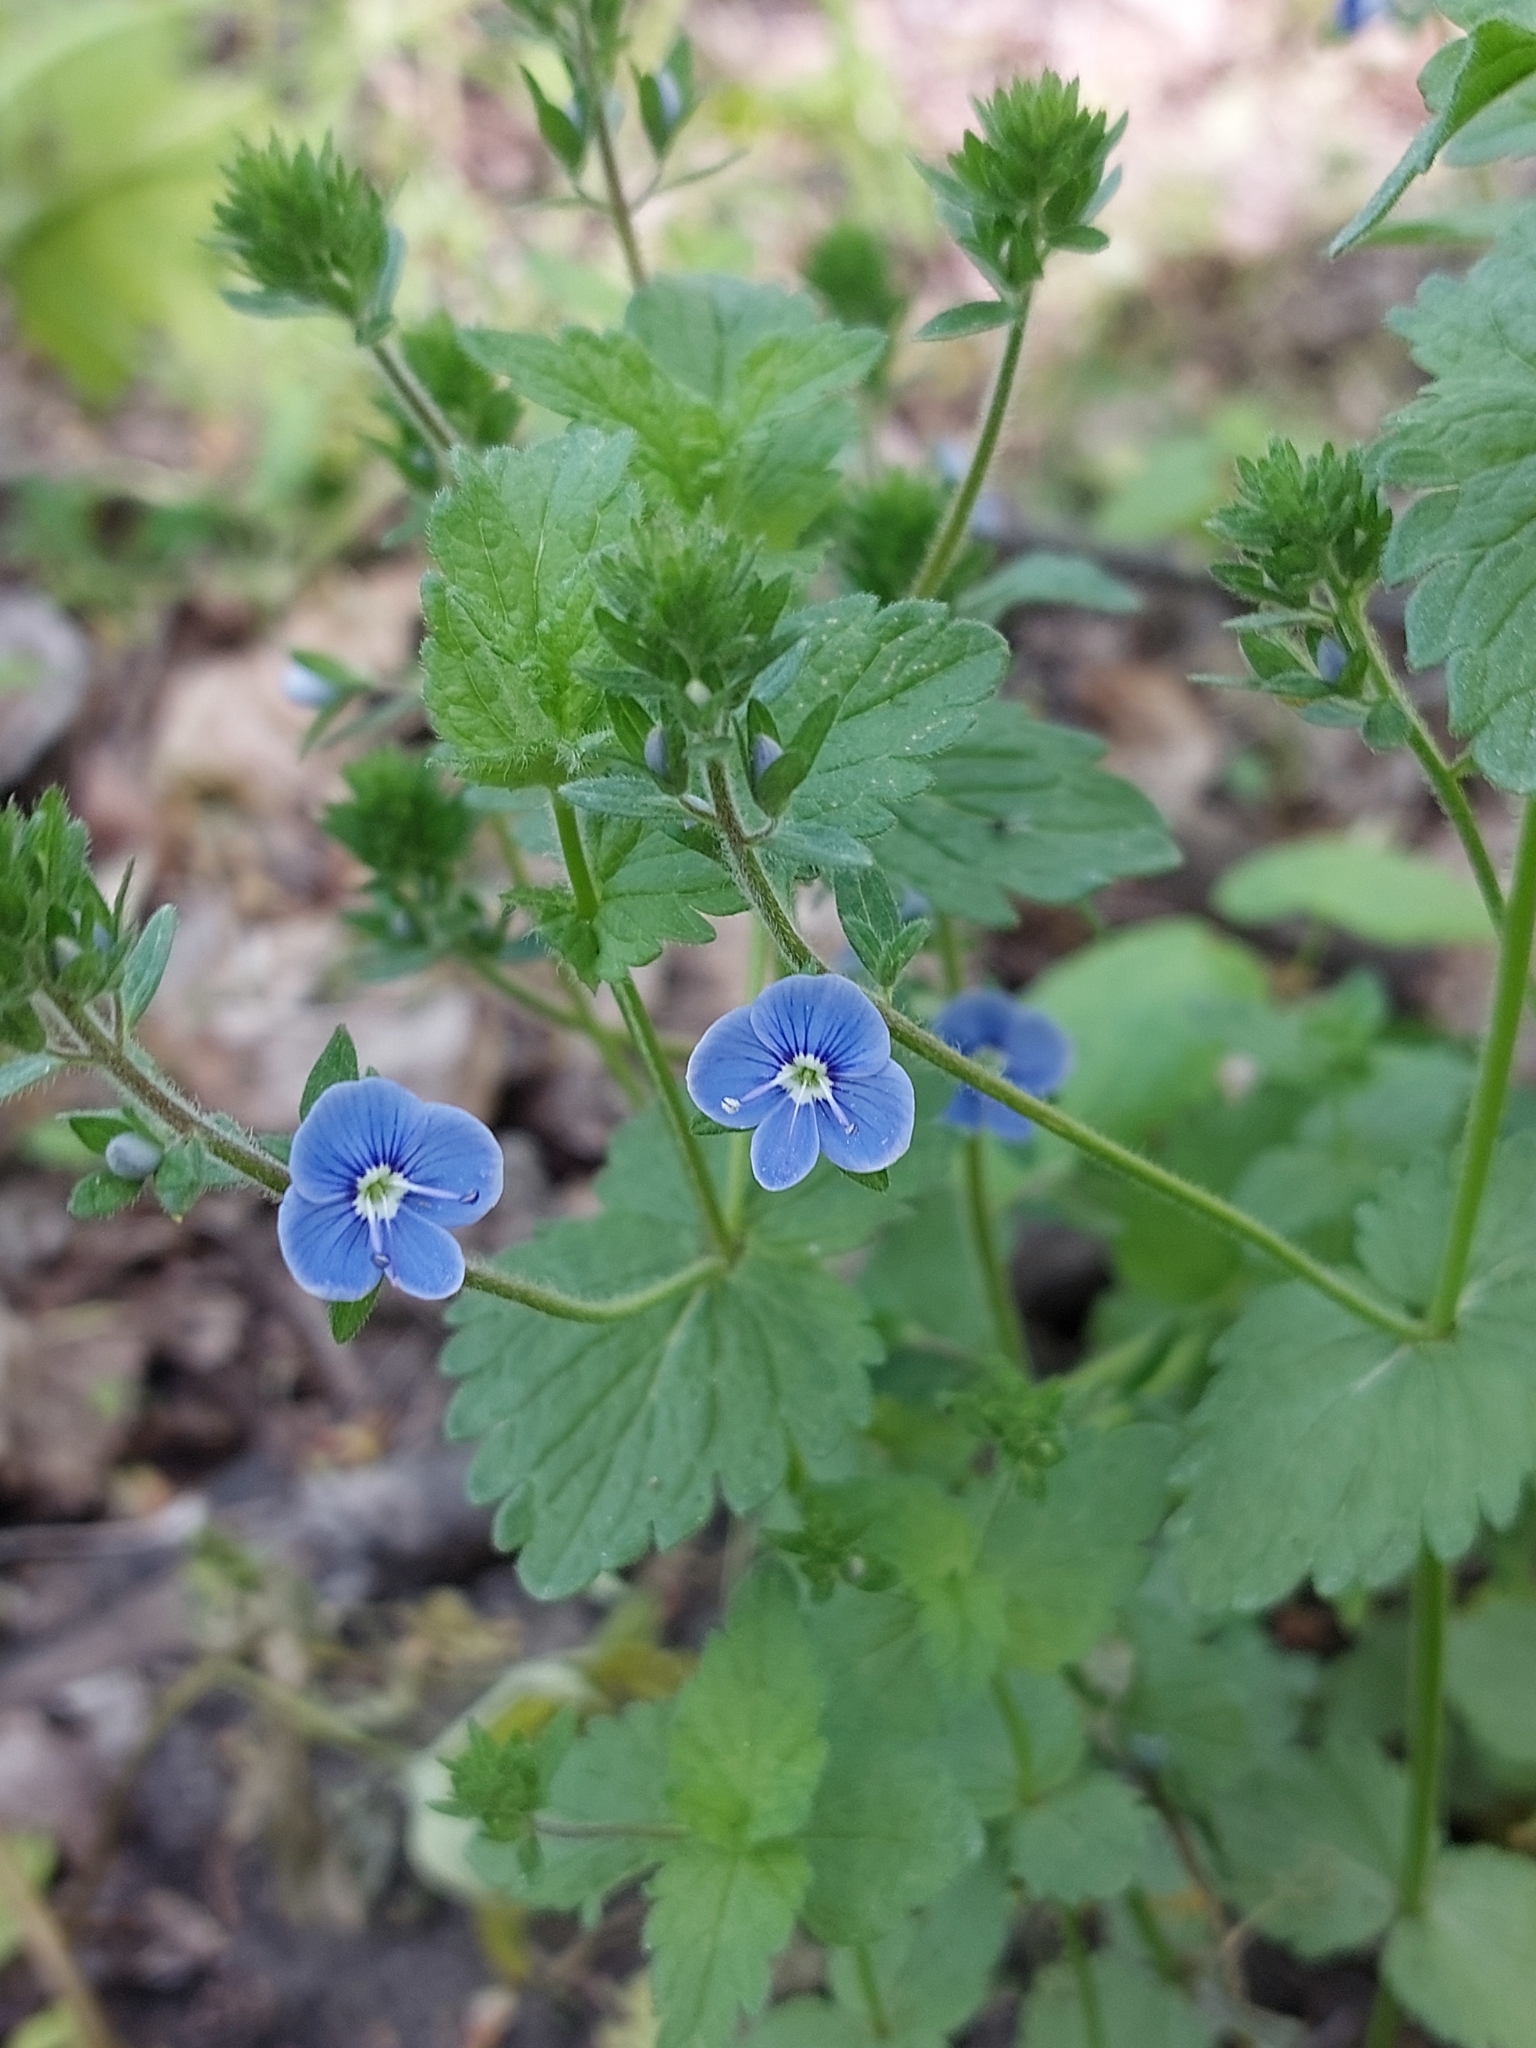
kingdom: Plantae
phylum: Tracheophyta
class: Magnoliopsida
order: Lamiales
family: Plantaginaceae
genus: Veronica
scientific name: Veronica chamaedrys
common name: Germander speedwell
